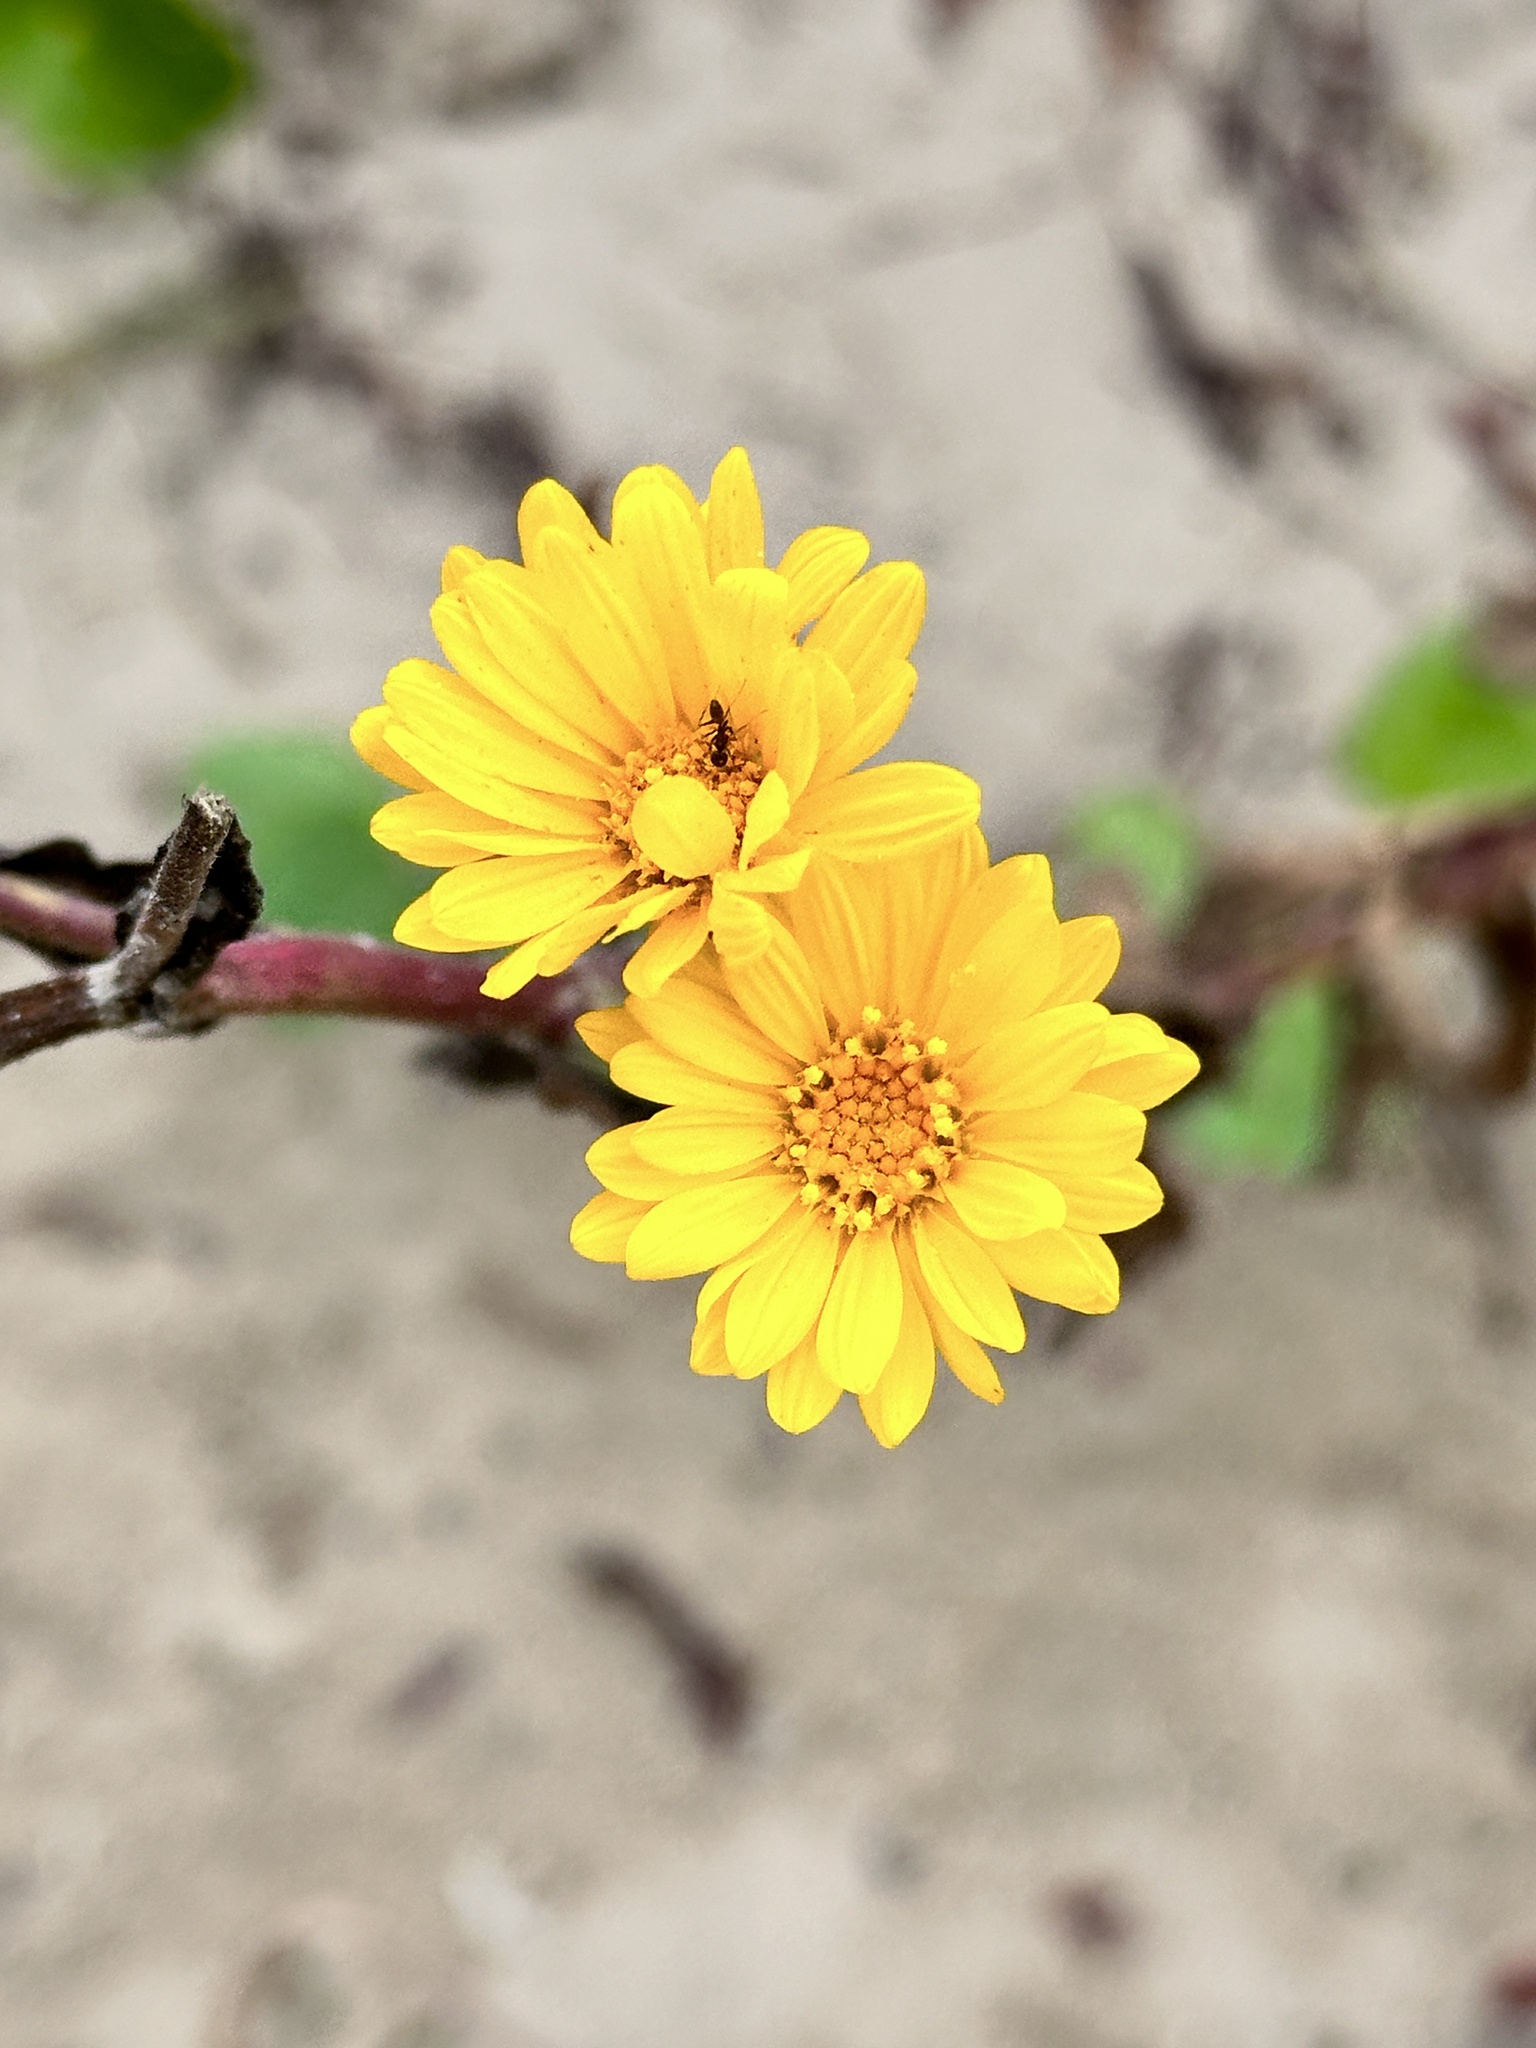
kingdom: Plantae
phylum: Tracheophyta
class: Magnoliopsida
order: Asterales
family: Asteraceae
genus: Heterotheca
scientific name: Heterotheca subaxillaris
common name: Camphorweed
